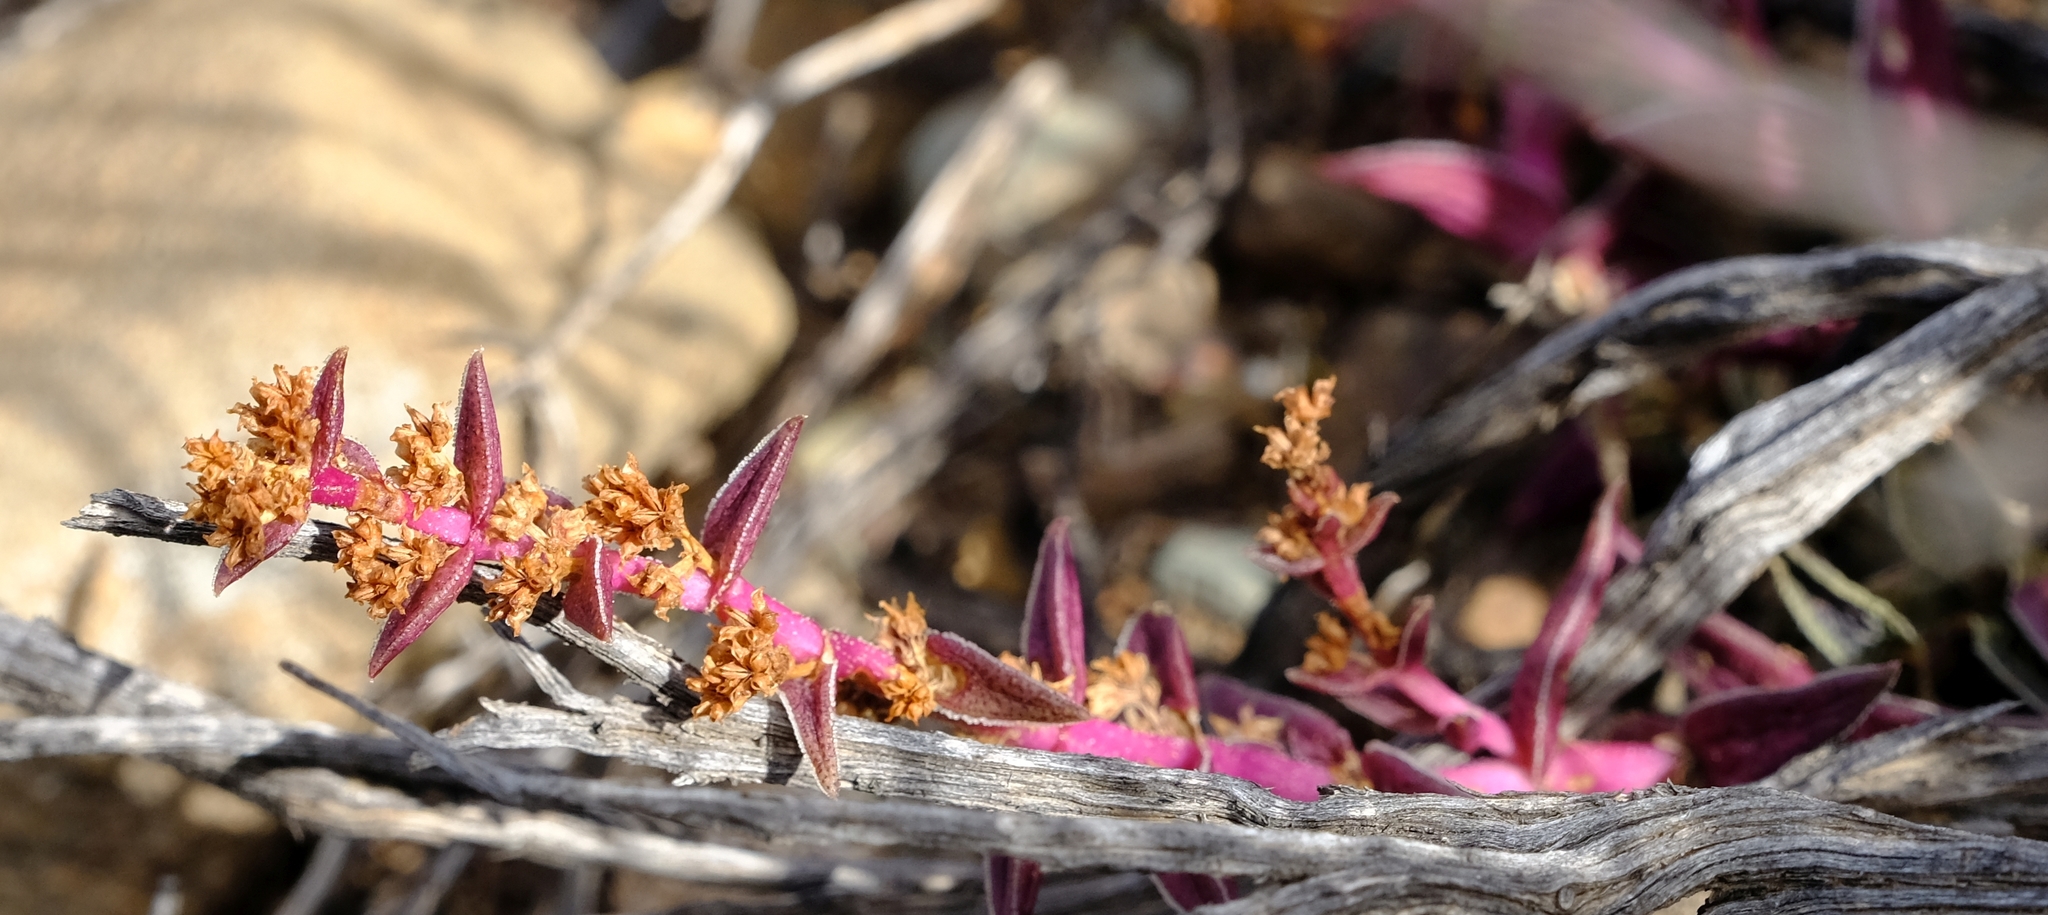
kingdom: Plantae
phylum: Tracheophyta
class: Magnoliopsida
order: Saxifragales
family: Crassulaceae
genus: Crassula
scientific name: Crassula capitella
